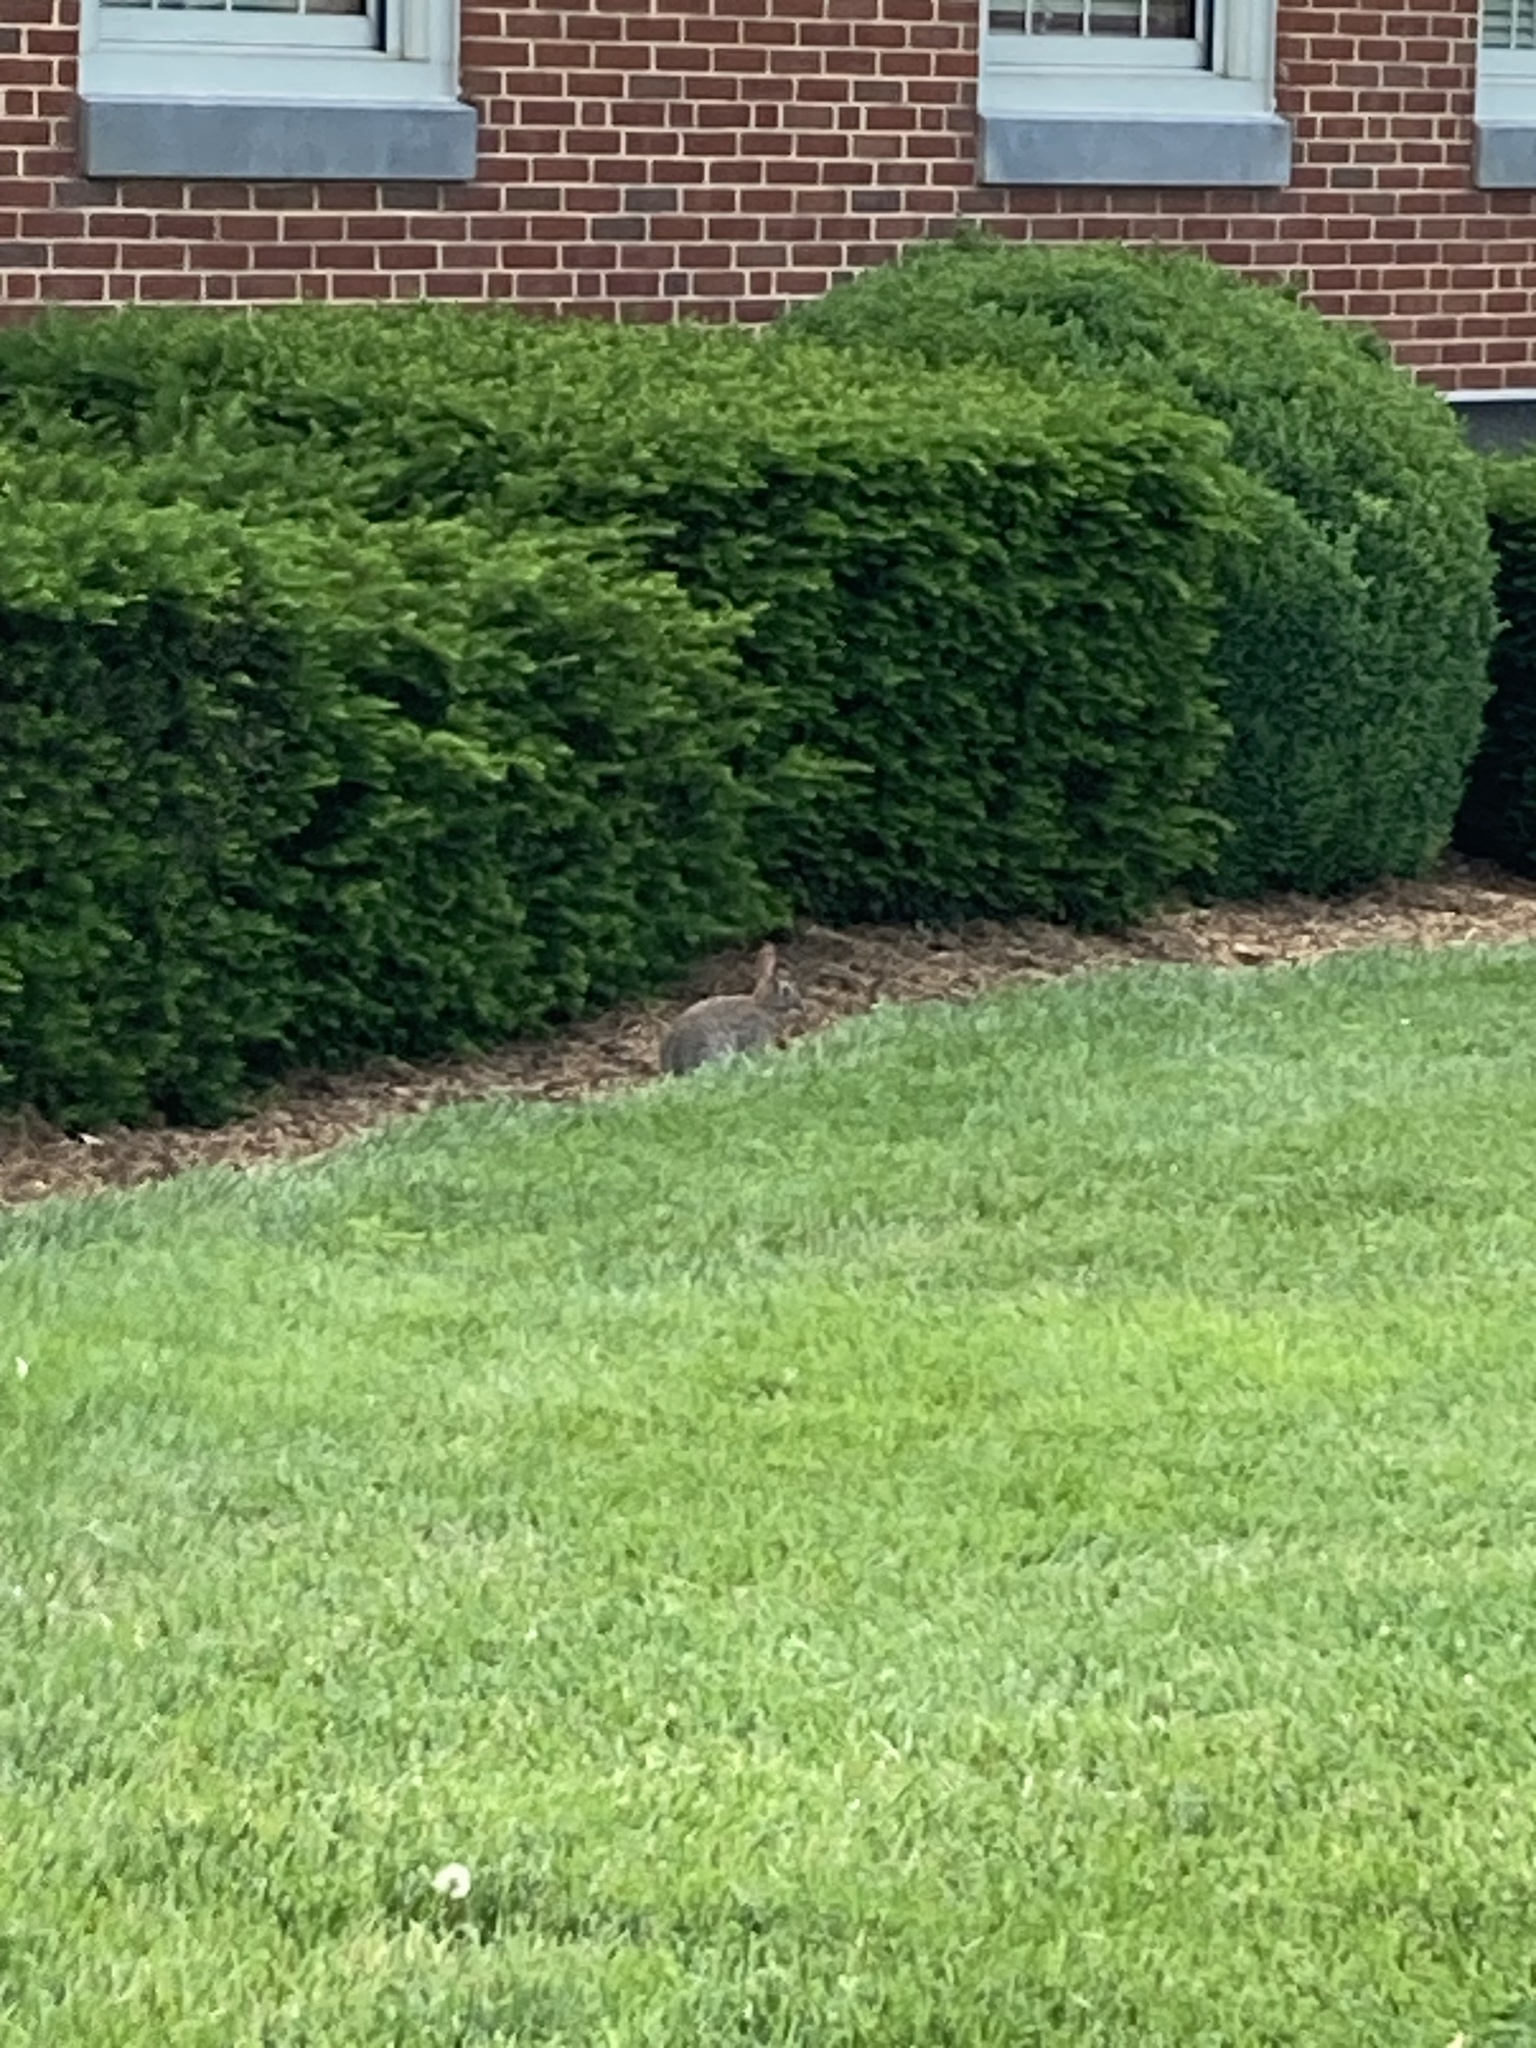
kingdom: Animalia
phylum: Chordata
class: Mammalia
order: Lagomorpha
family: Leporidae
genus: Sylvilagus
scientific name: Sylvilagus floridanus
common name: Eastern cottontail
